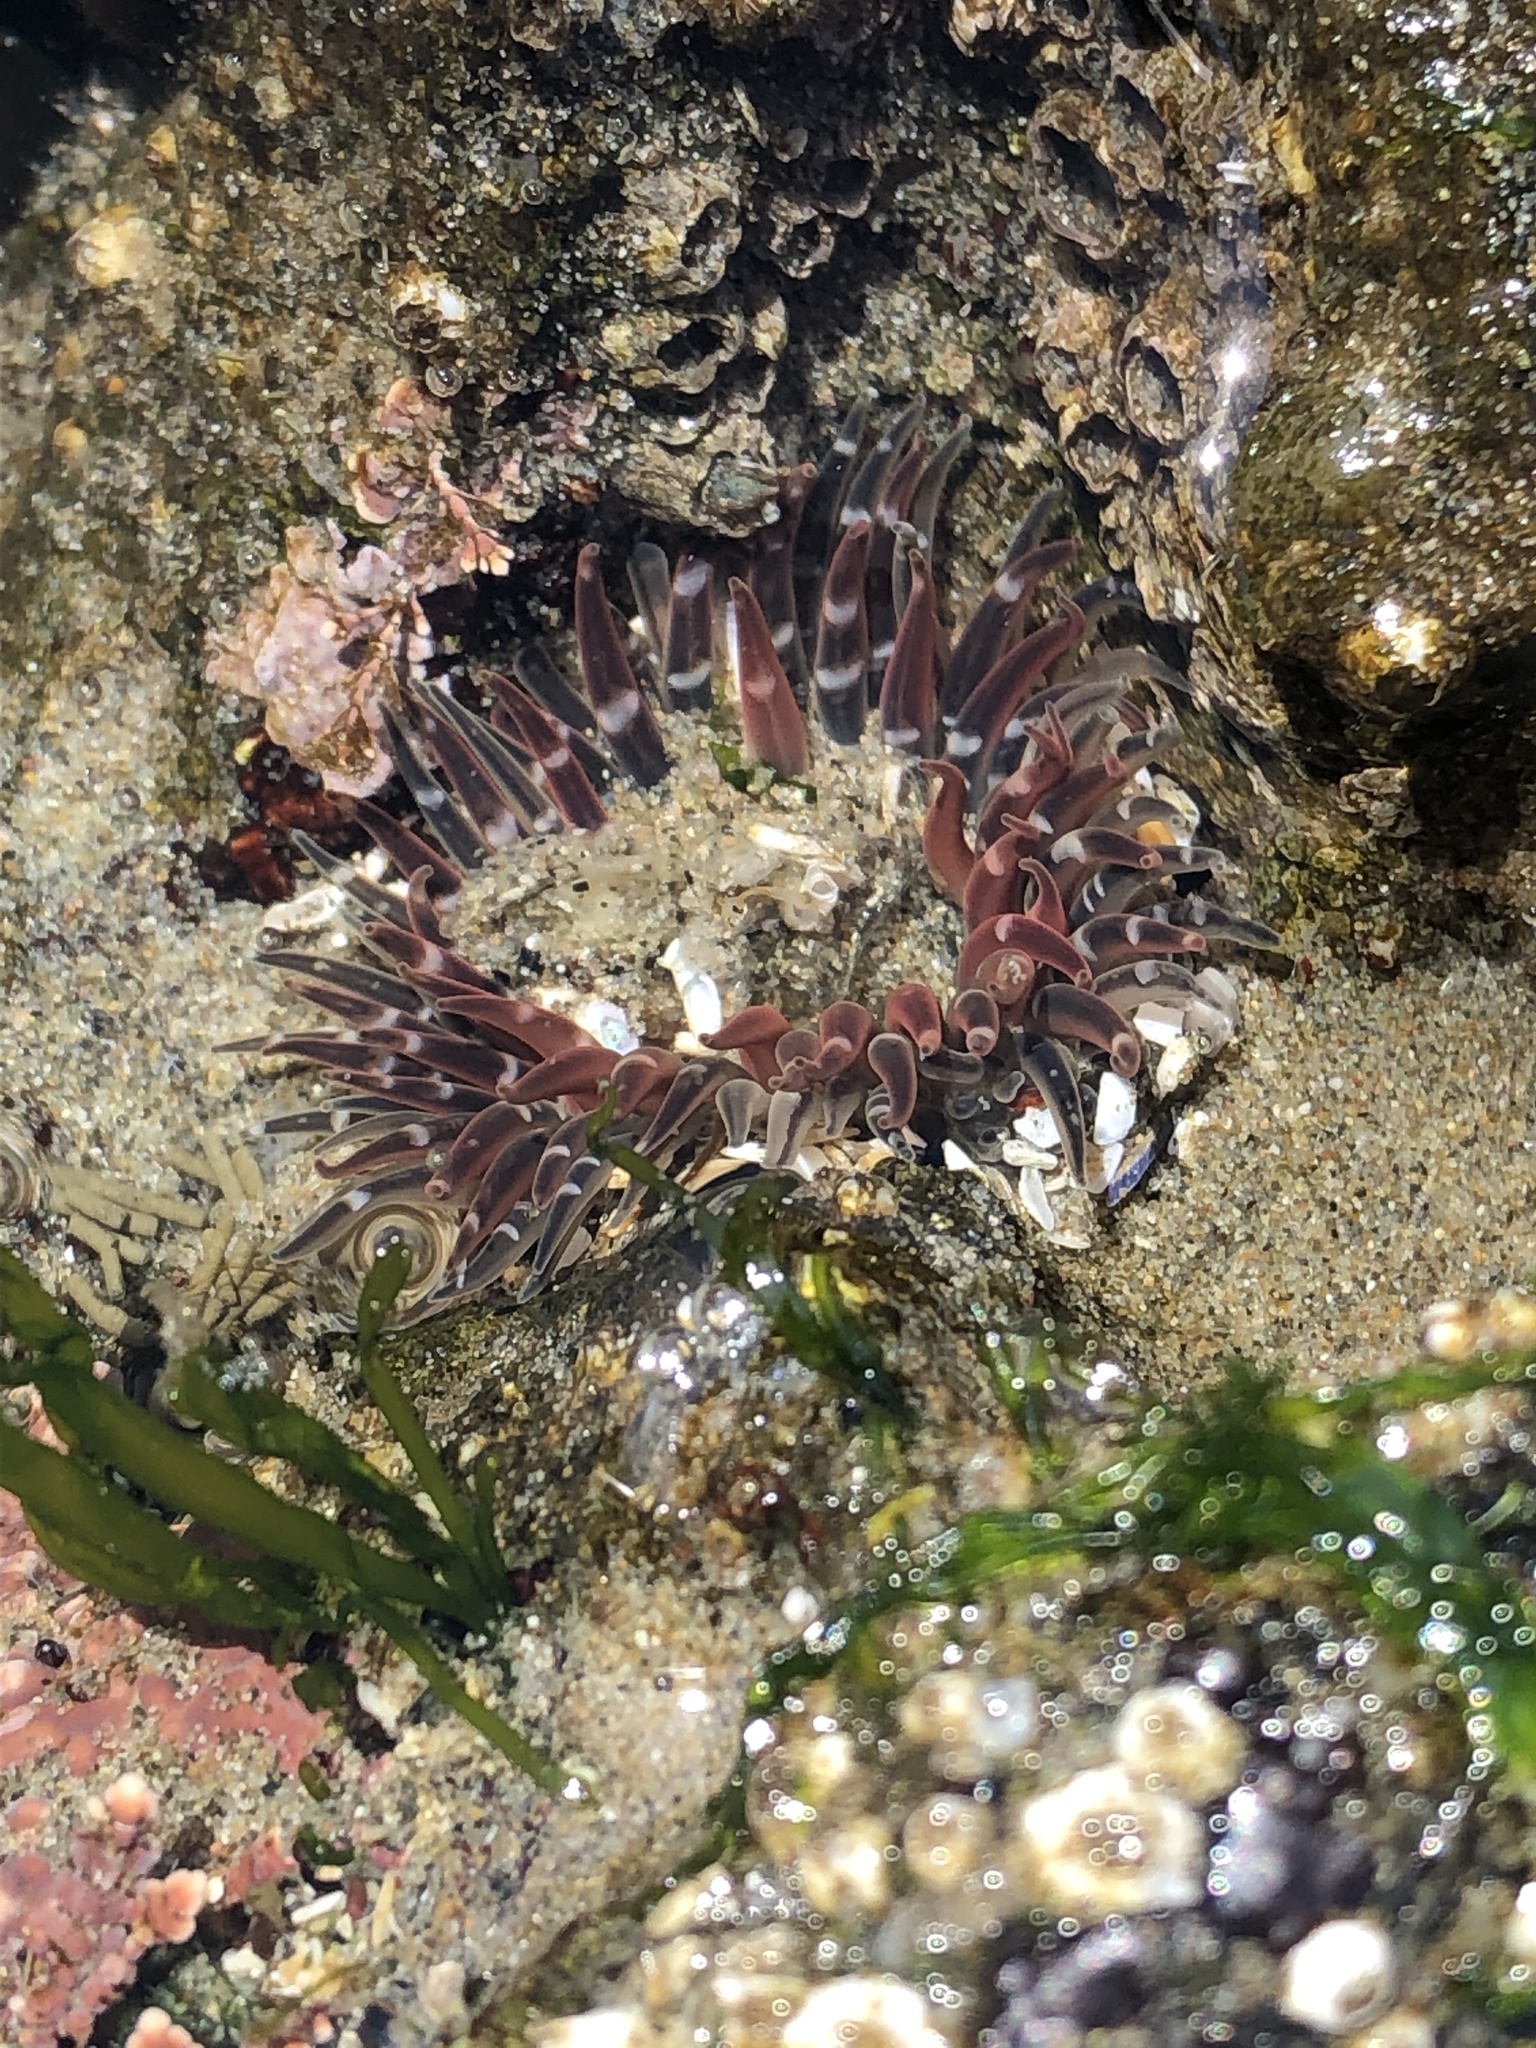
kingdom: Animalia
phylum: Cnidaria
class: Anthozoa
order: Actiniaria
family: Actiniidae
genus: Anthopleura
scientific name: Anthopleura artemisia
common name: Buried sea anemone
